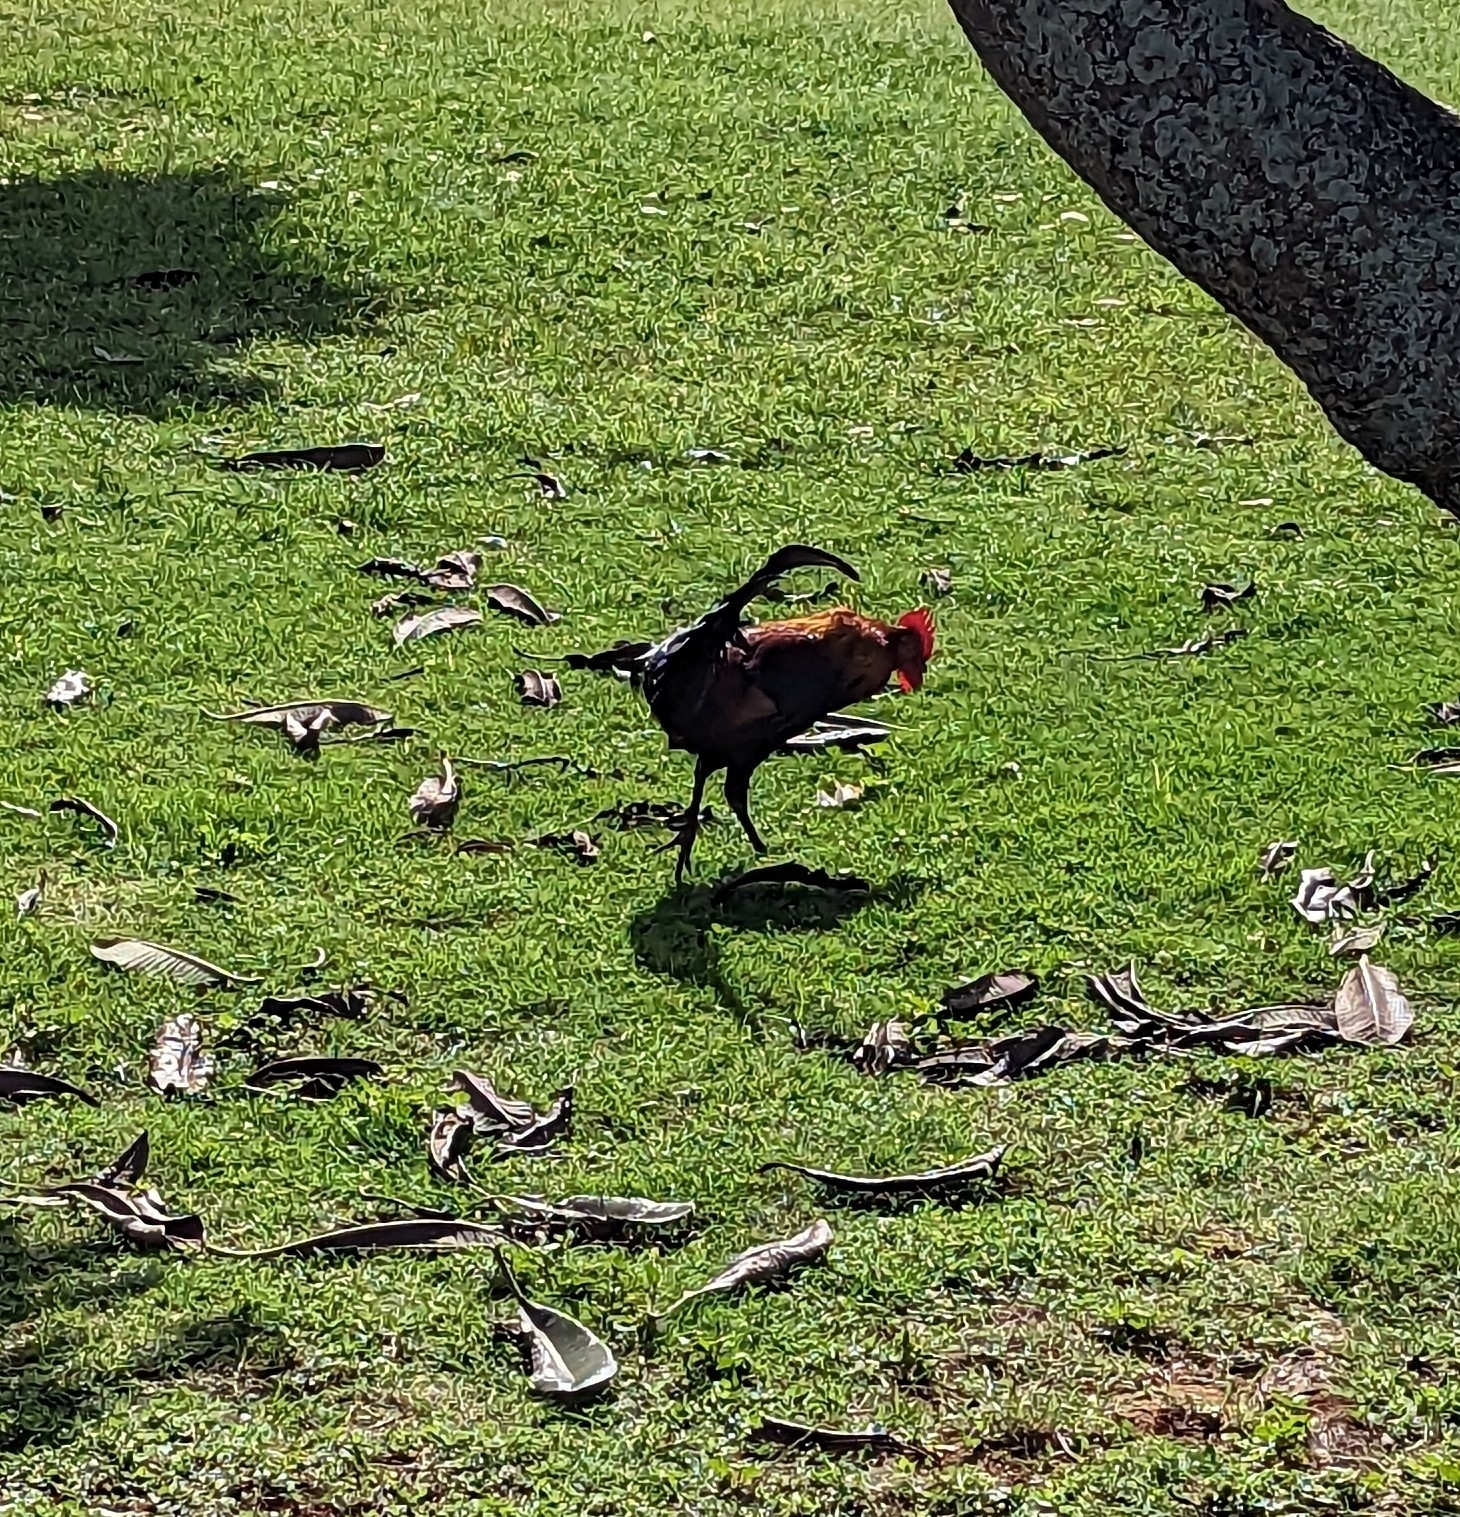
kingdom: Animalia
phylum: Chordata
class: Aves
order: Galliformes
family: Phasianidae
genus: Gallus
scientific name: Gallus gallus
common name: Red junglefowl
